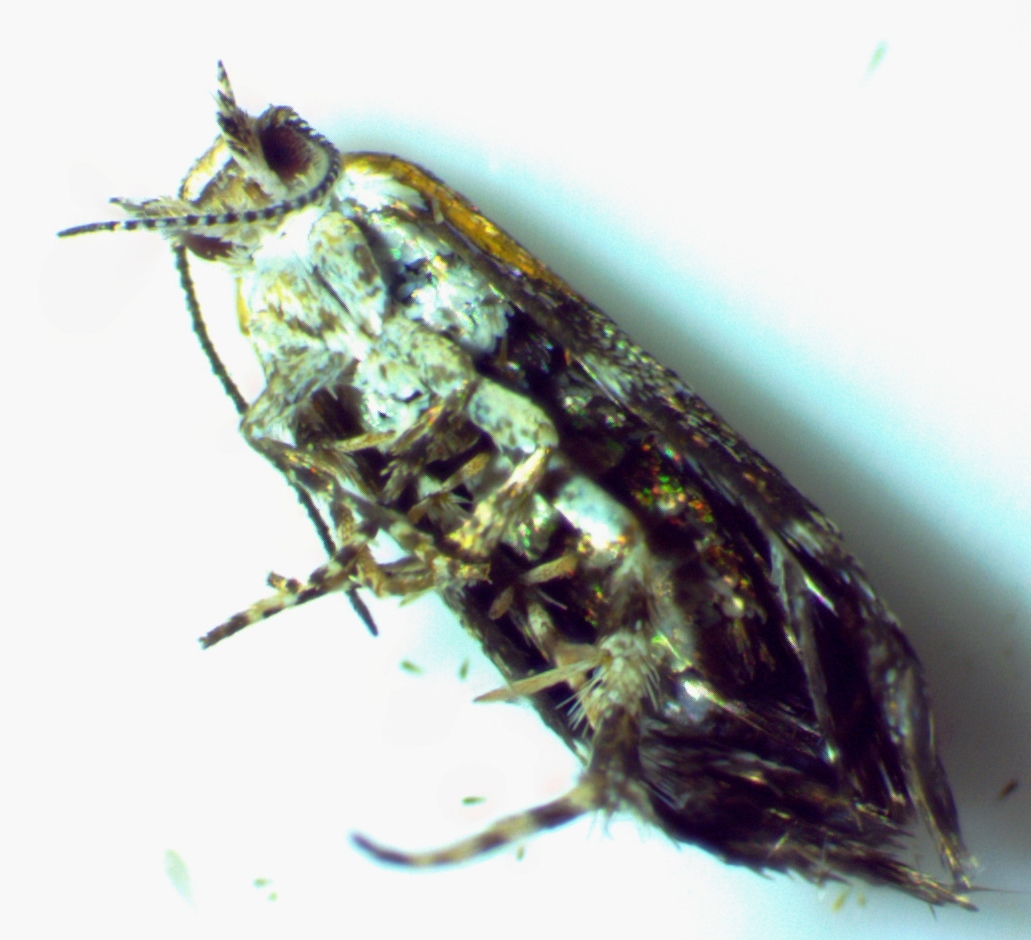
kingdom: Animalia
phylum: Arthropoda
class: Insecta
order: Lepidoptera
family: Choreutidae
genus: Tebenna
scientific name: Tebenna gnaphaliella
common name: Everlasting tebenna moth
